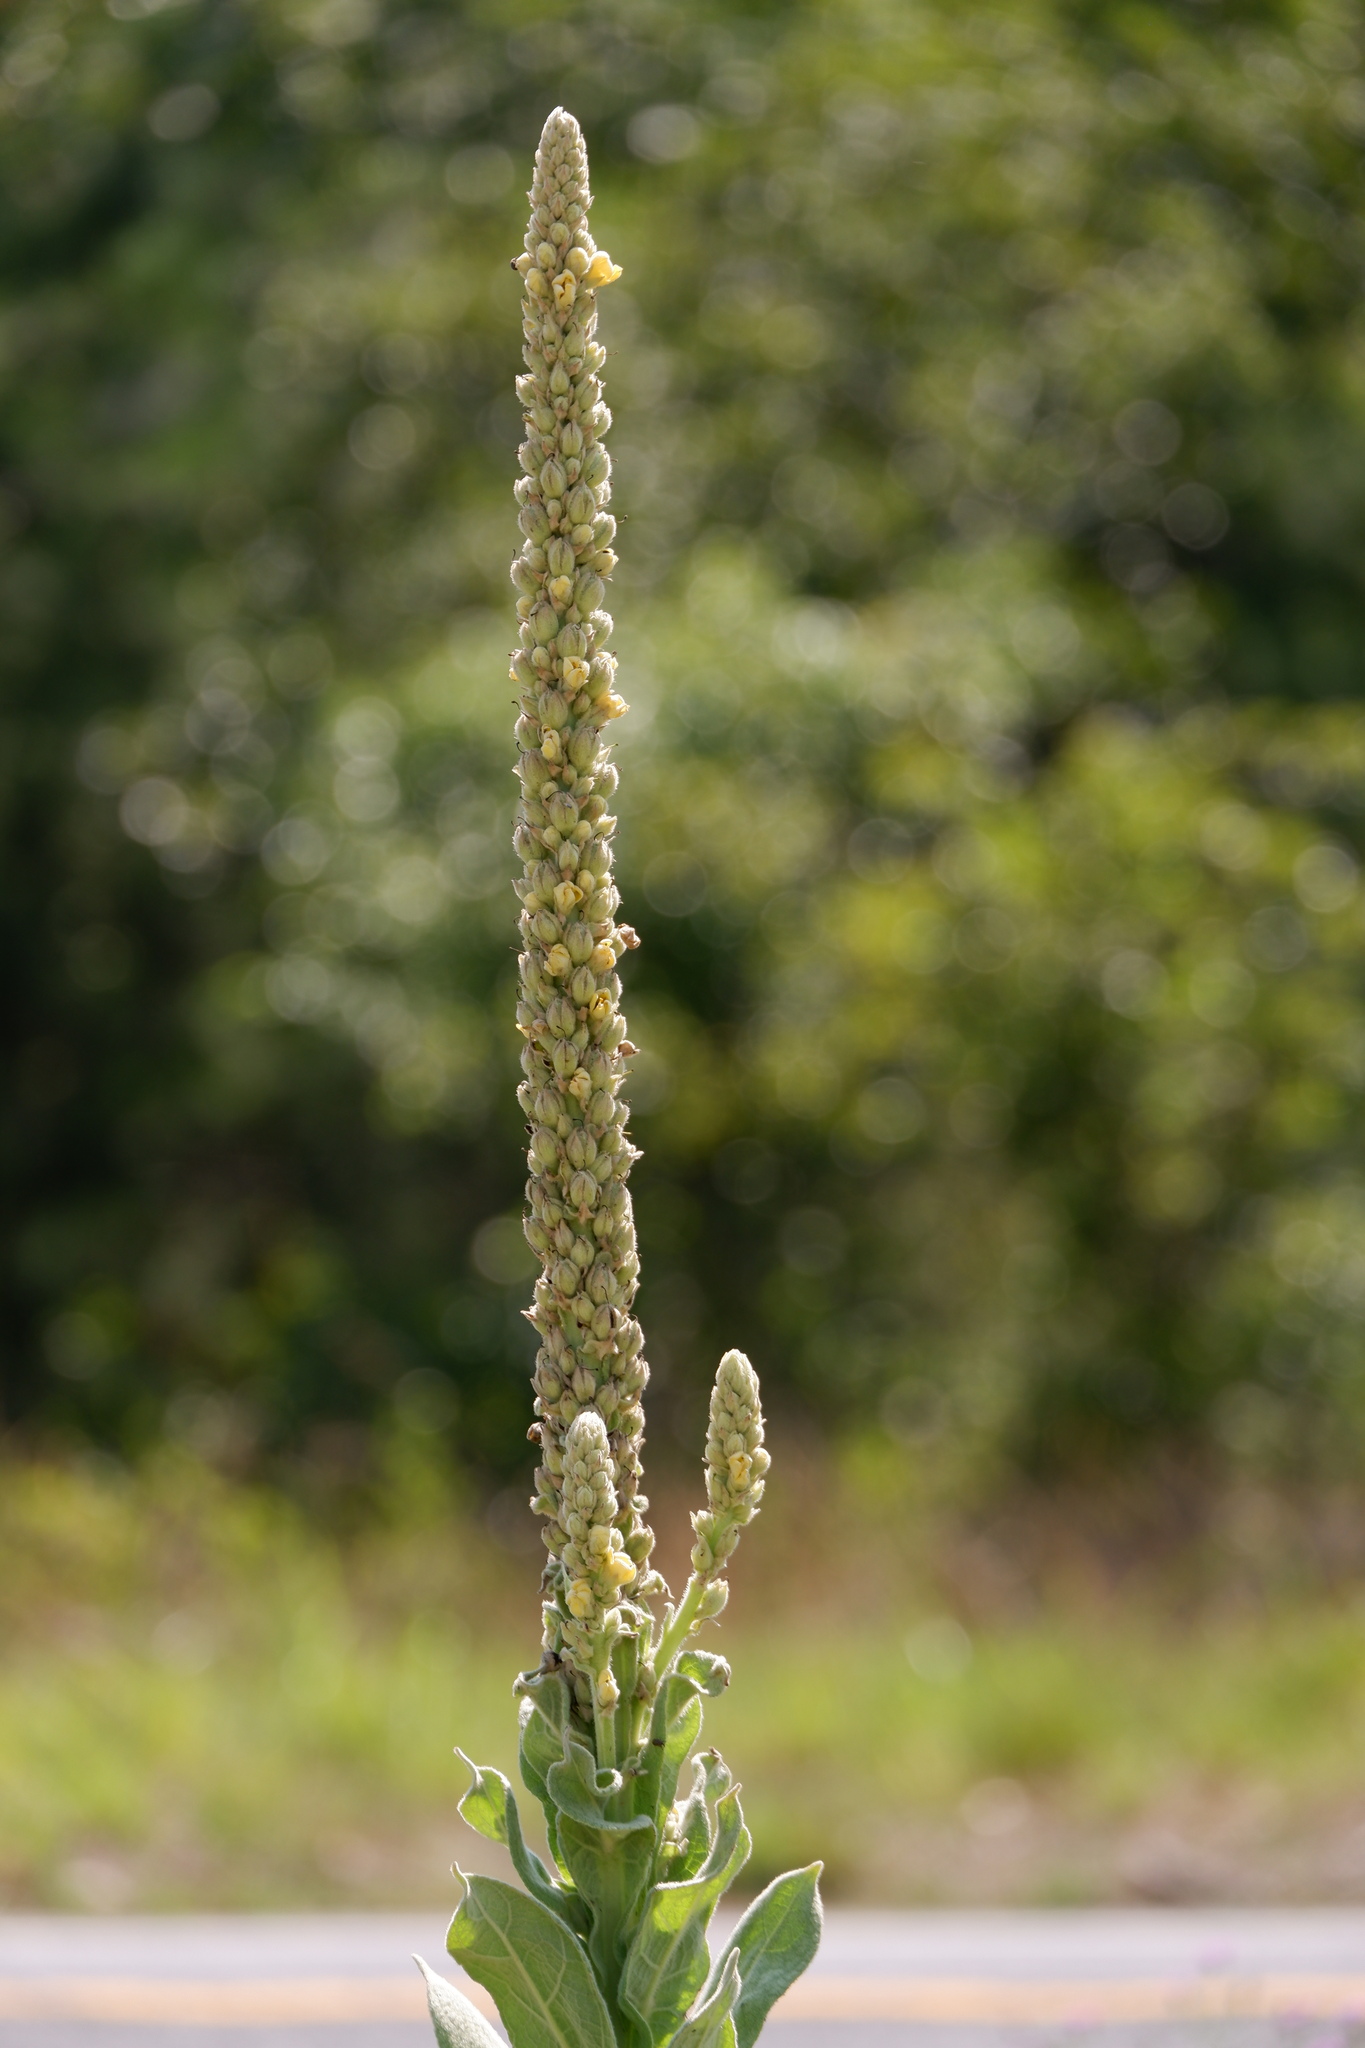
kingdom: Plantae
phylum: Tracheophyta
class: Magnoliopsida
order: Lamiales
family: Scrophulariaceae
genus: Verbascum
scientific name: Verbascum thapsus
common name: Common mullein
